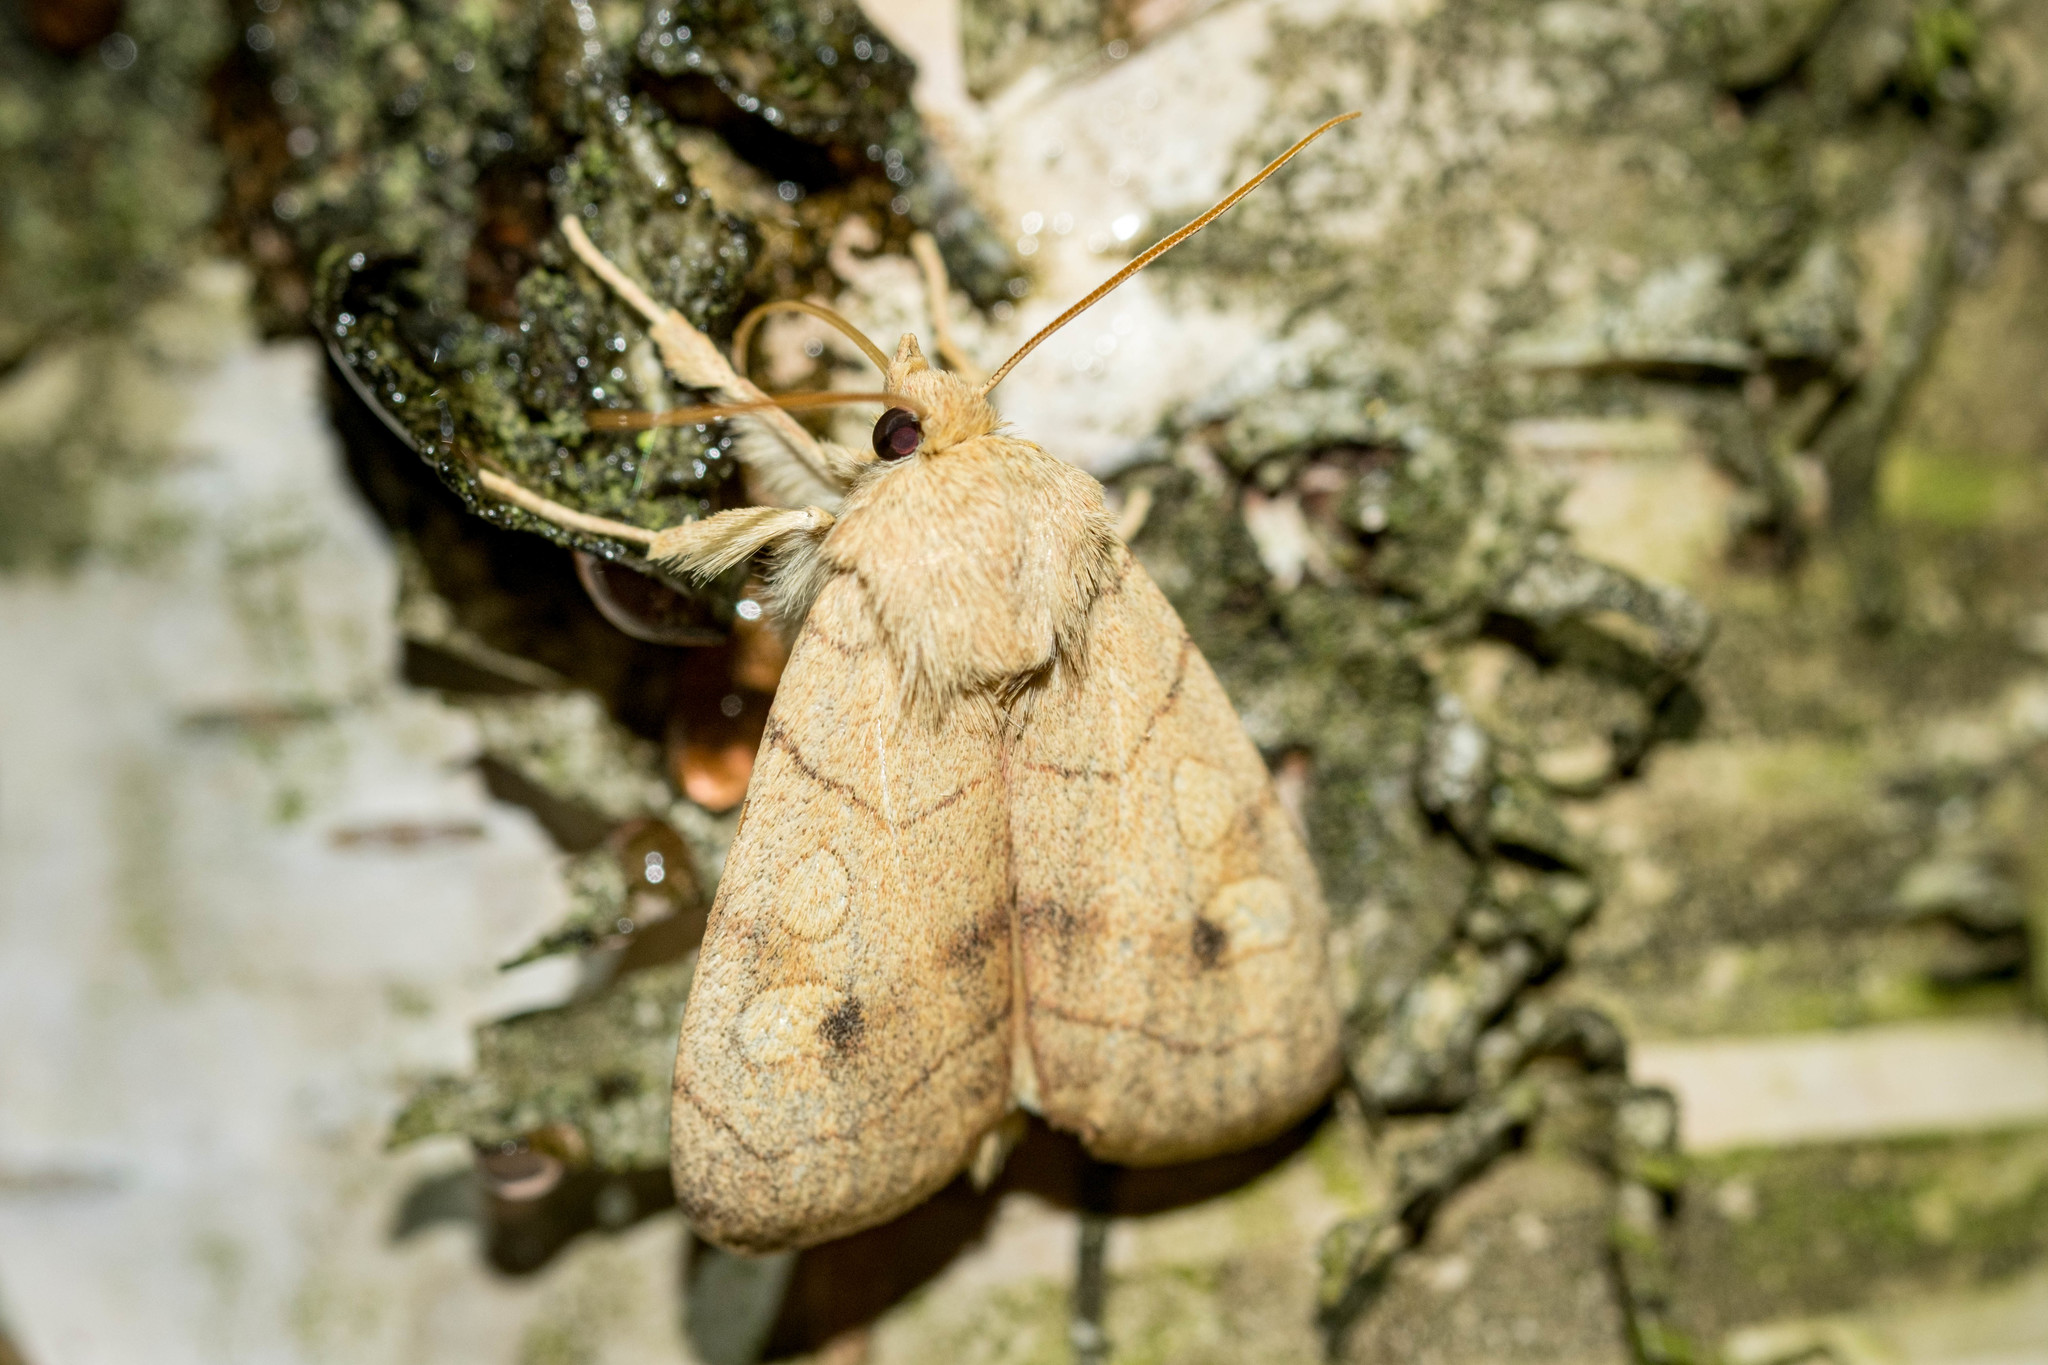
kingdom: Animalia
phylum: Arthropoda
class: Insecta
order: Lepidoptera
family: Noctuidae
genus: Enargia
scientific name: Enargia paleacea
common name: Angle-striped sallow
